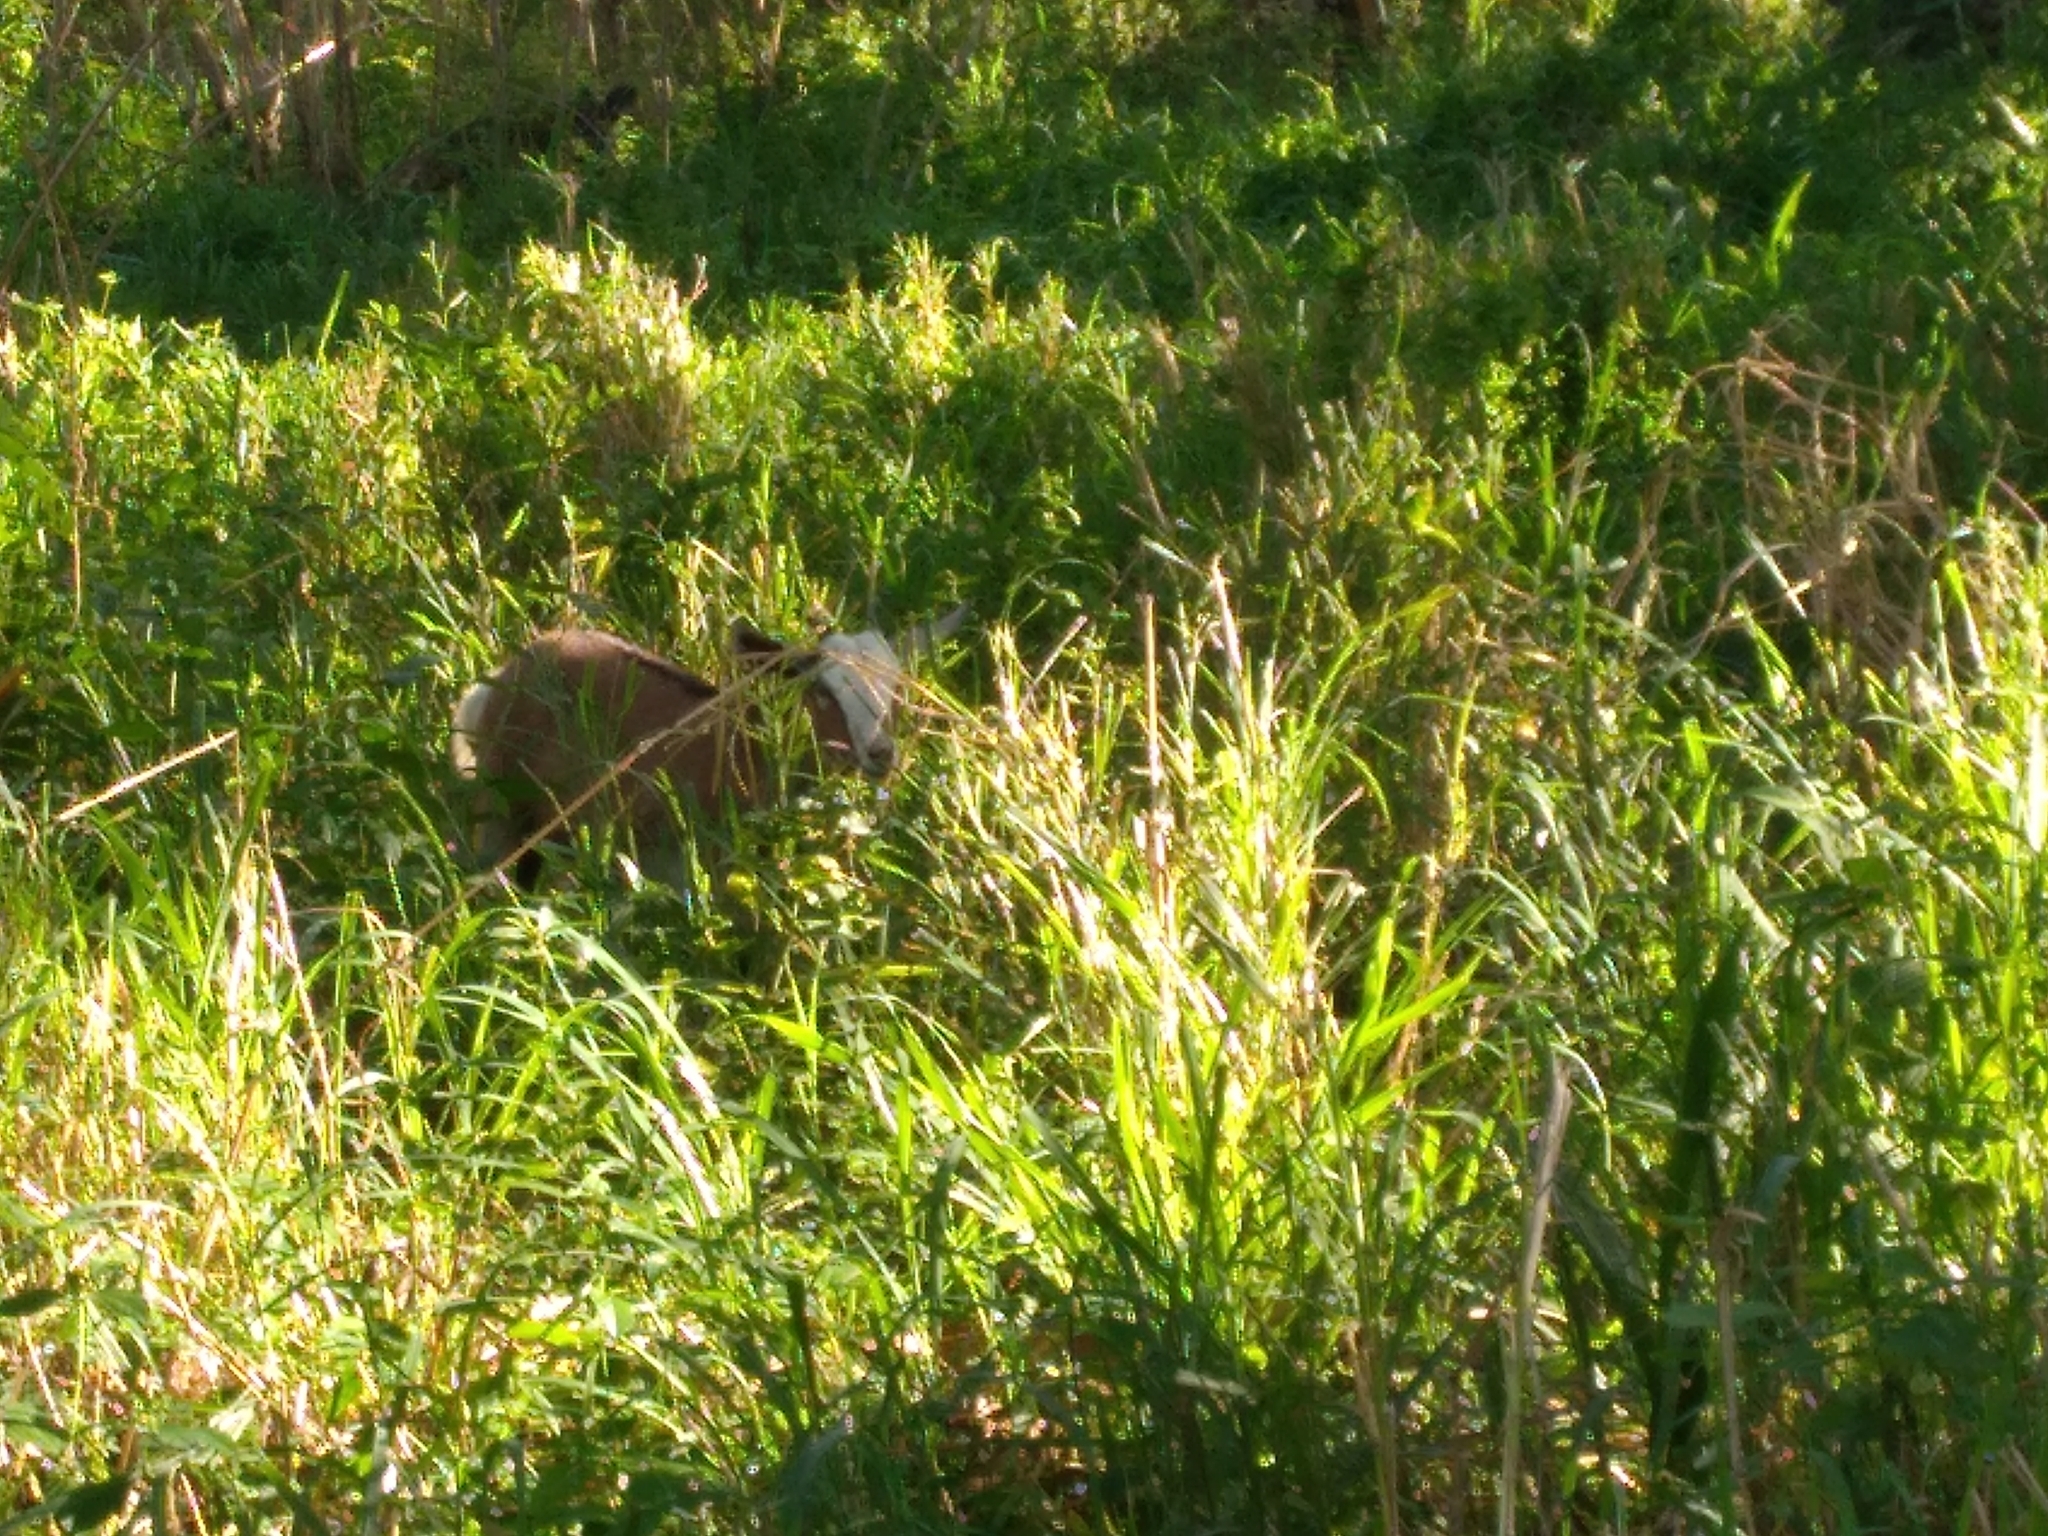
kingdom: Animalia
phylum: Chordata
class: Mammalia
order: Artiodactyla
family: Bovidae
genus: Capra
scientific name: Capra hircus
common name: Domestic goat
